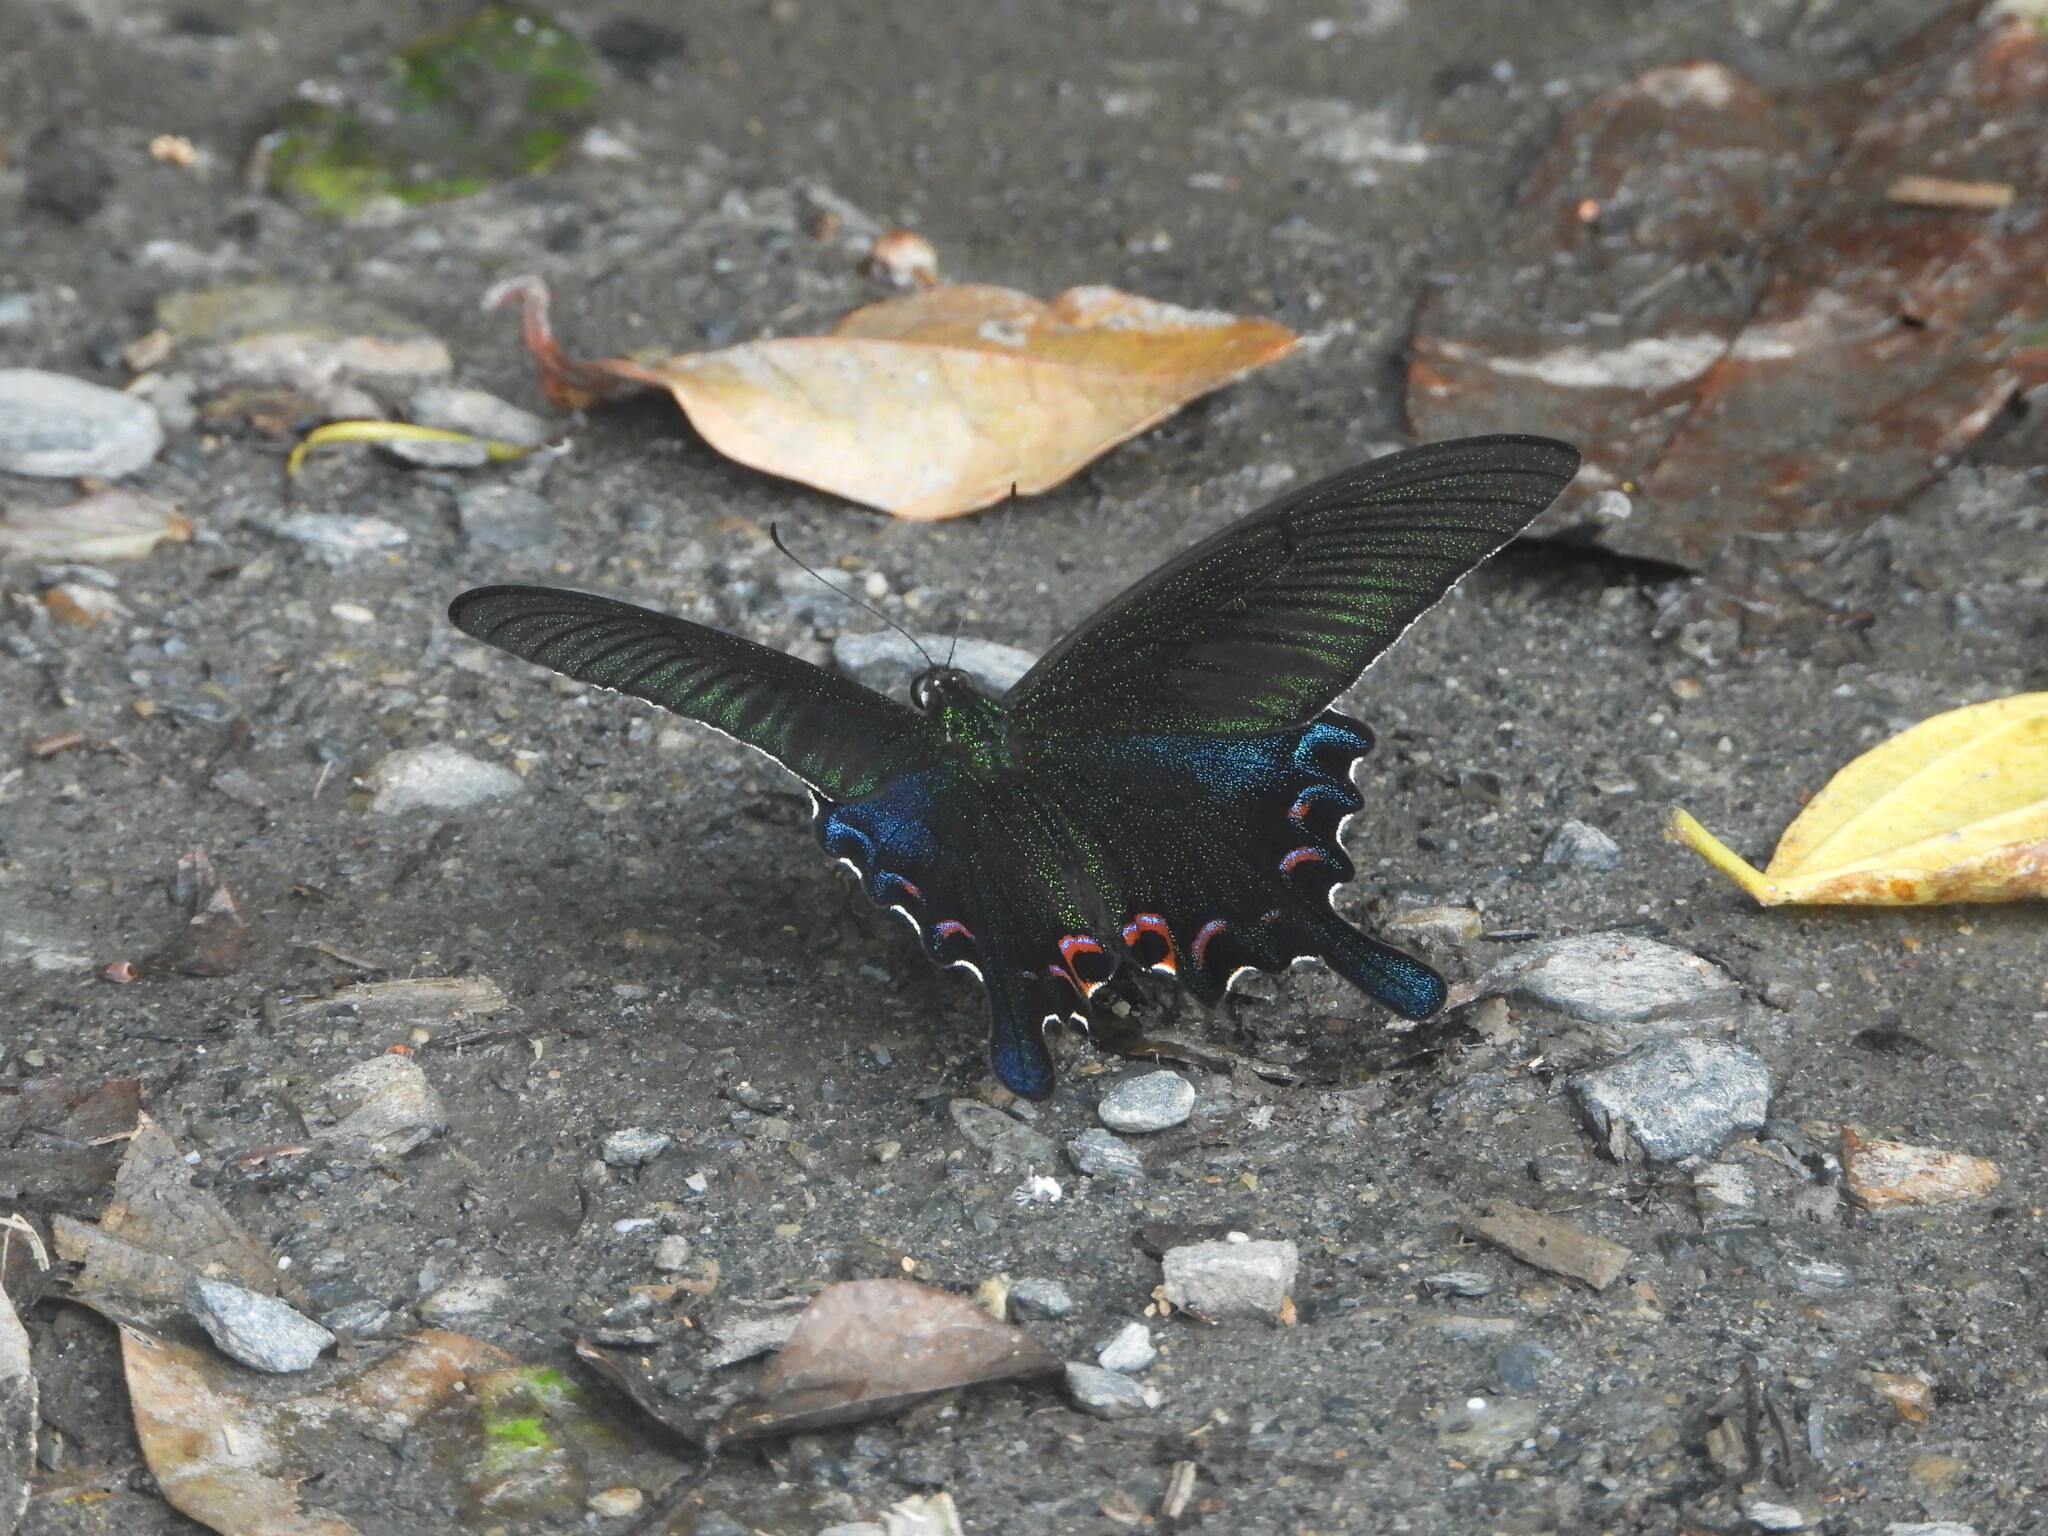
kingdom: Animalia
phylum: Arthropoda
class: Insecta
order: Lepidoptera
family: Papilionidae
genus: Papilio
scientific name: Papilio bianor
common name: Common peacock
